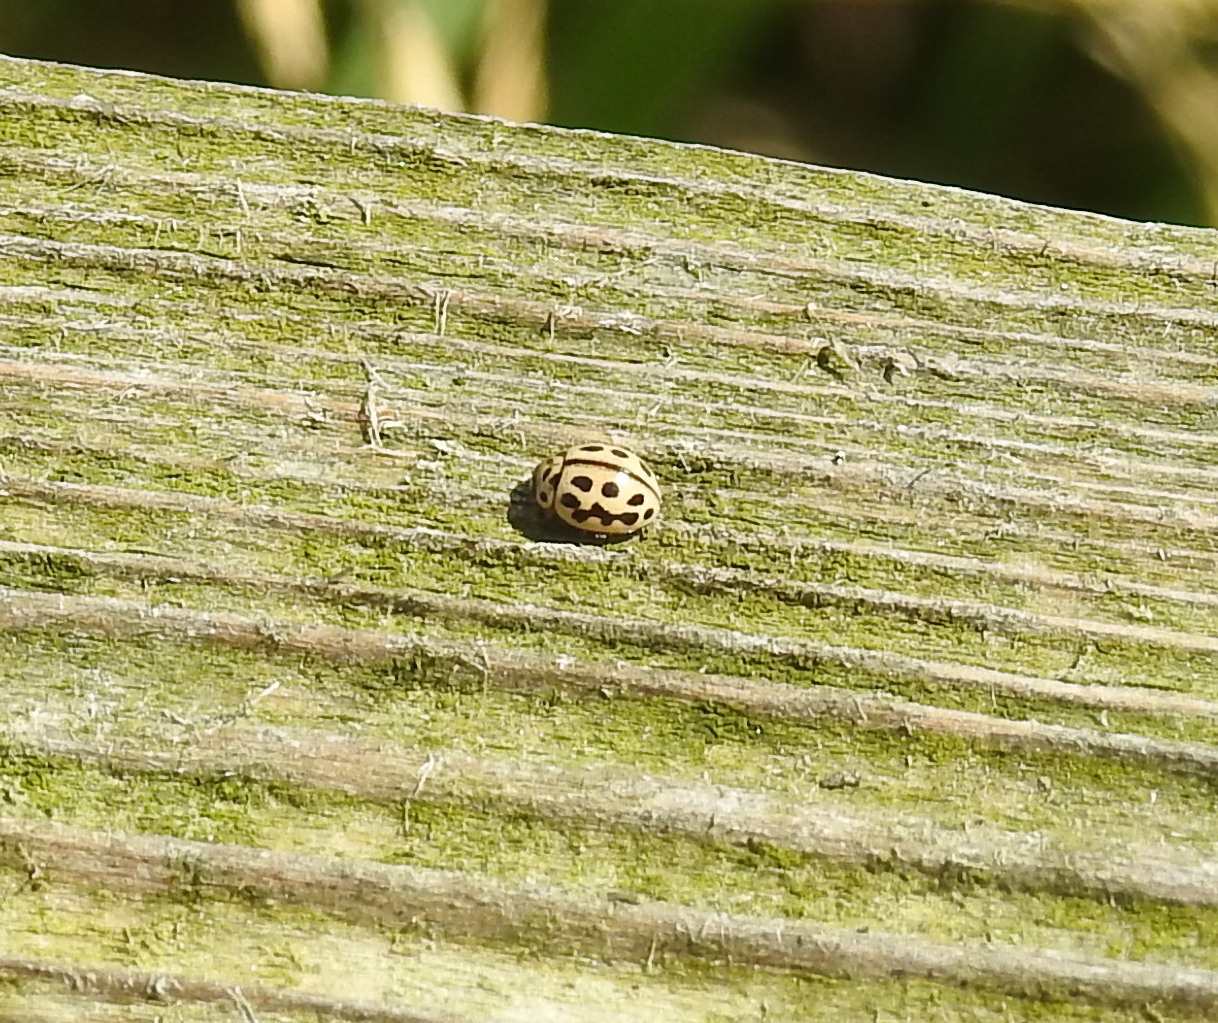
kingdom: Animalia
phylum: Arthropoda
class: Insecta
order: Coleoptera
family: Coccinellidae
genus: Tytthaspis
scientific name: Tytthaspis sedecimpunctata
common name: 16-spot ladybird
